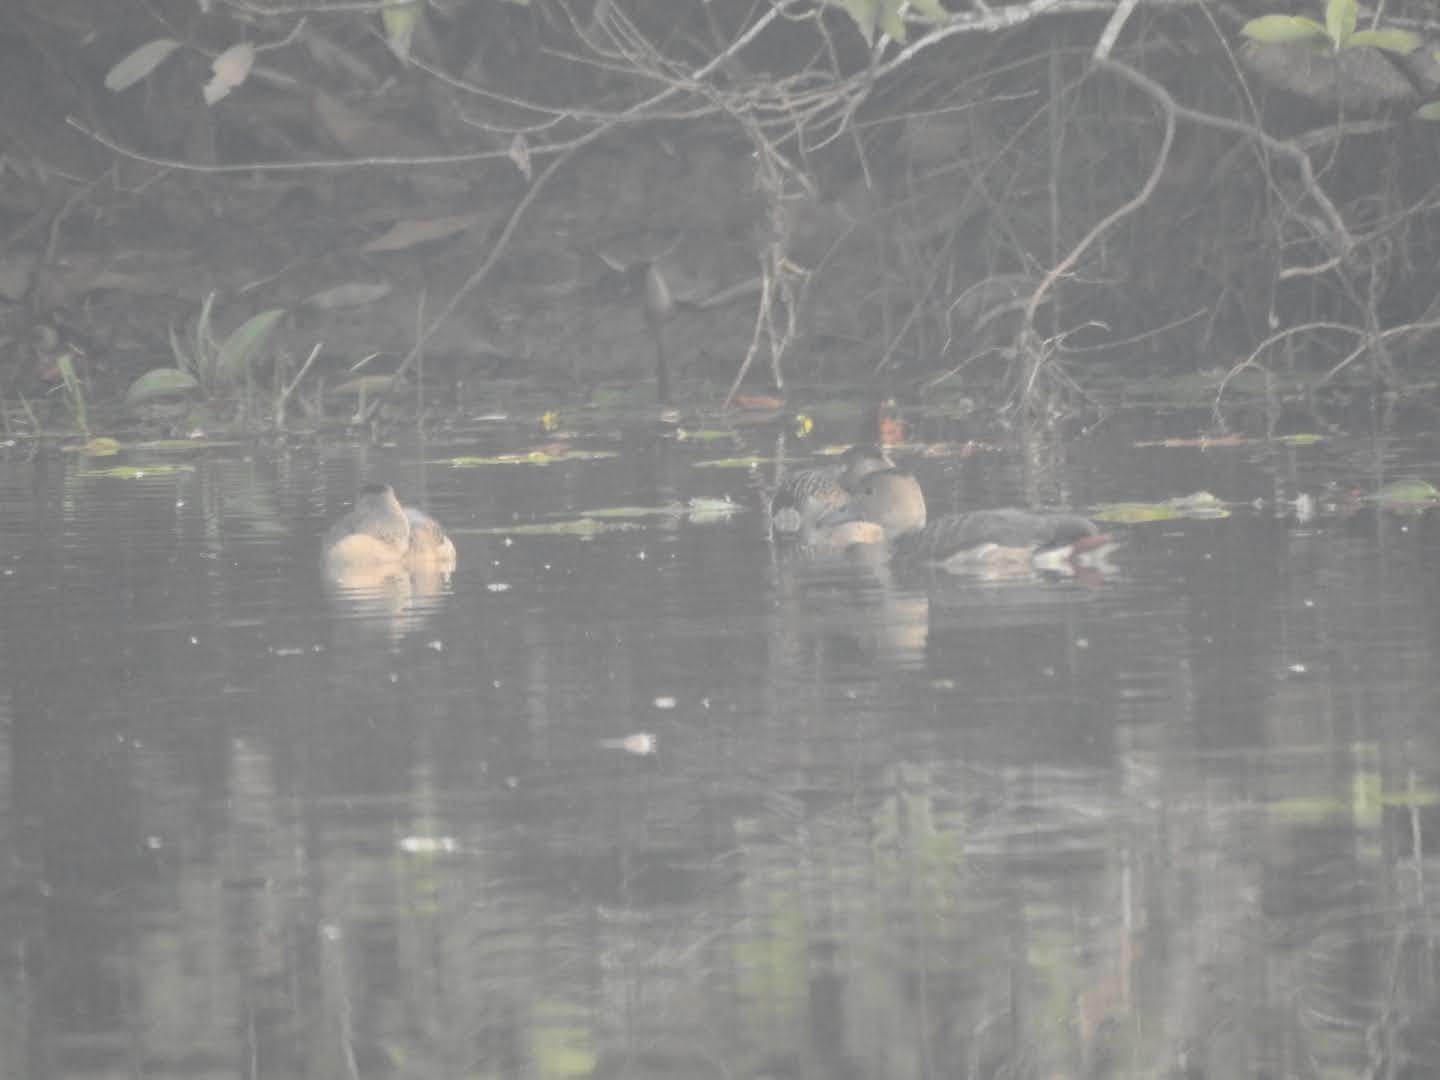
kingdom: Animalia
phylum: Chordata
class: Aves
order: Anseriformes
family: Anatidae
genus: Dendrocygna
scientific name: Dendrocygna javanica
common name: Lesser whistling-duck
